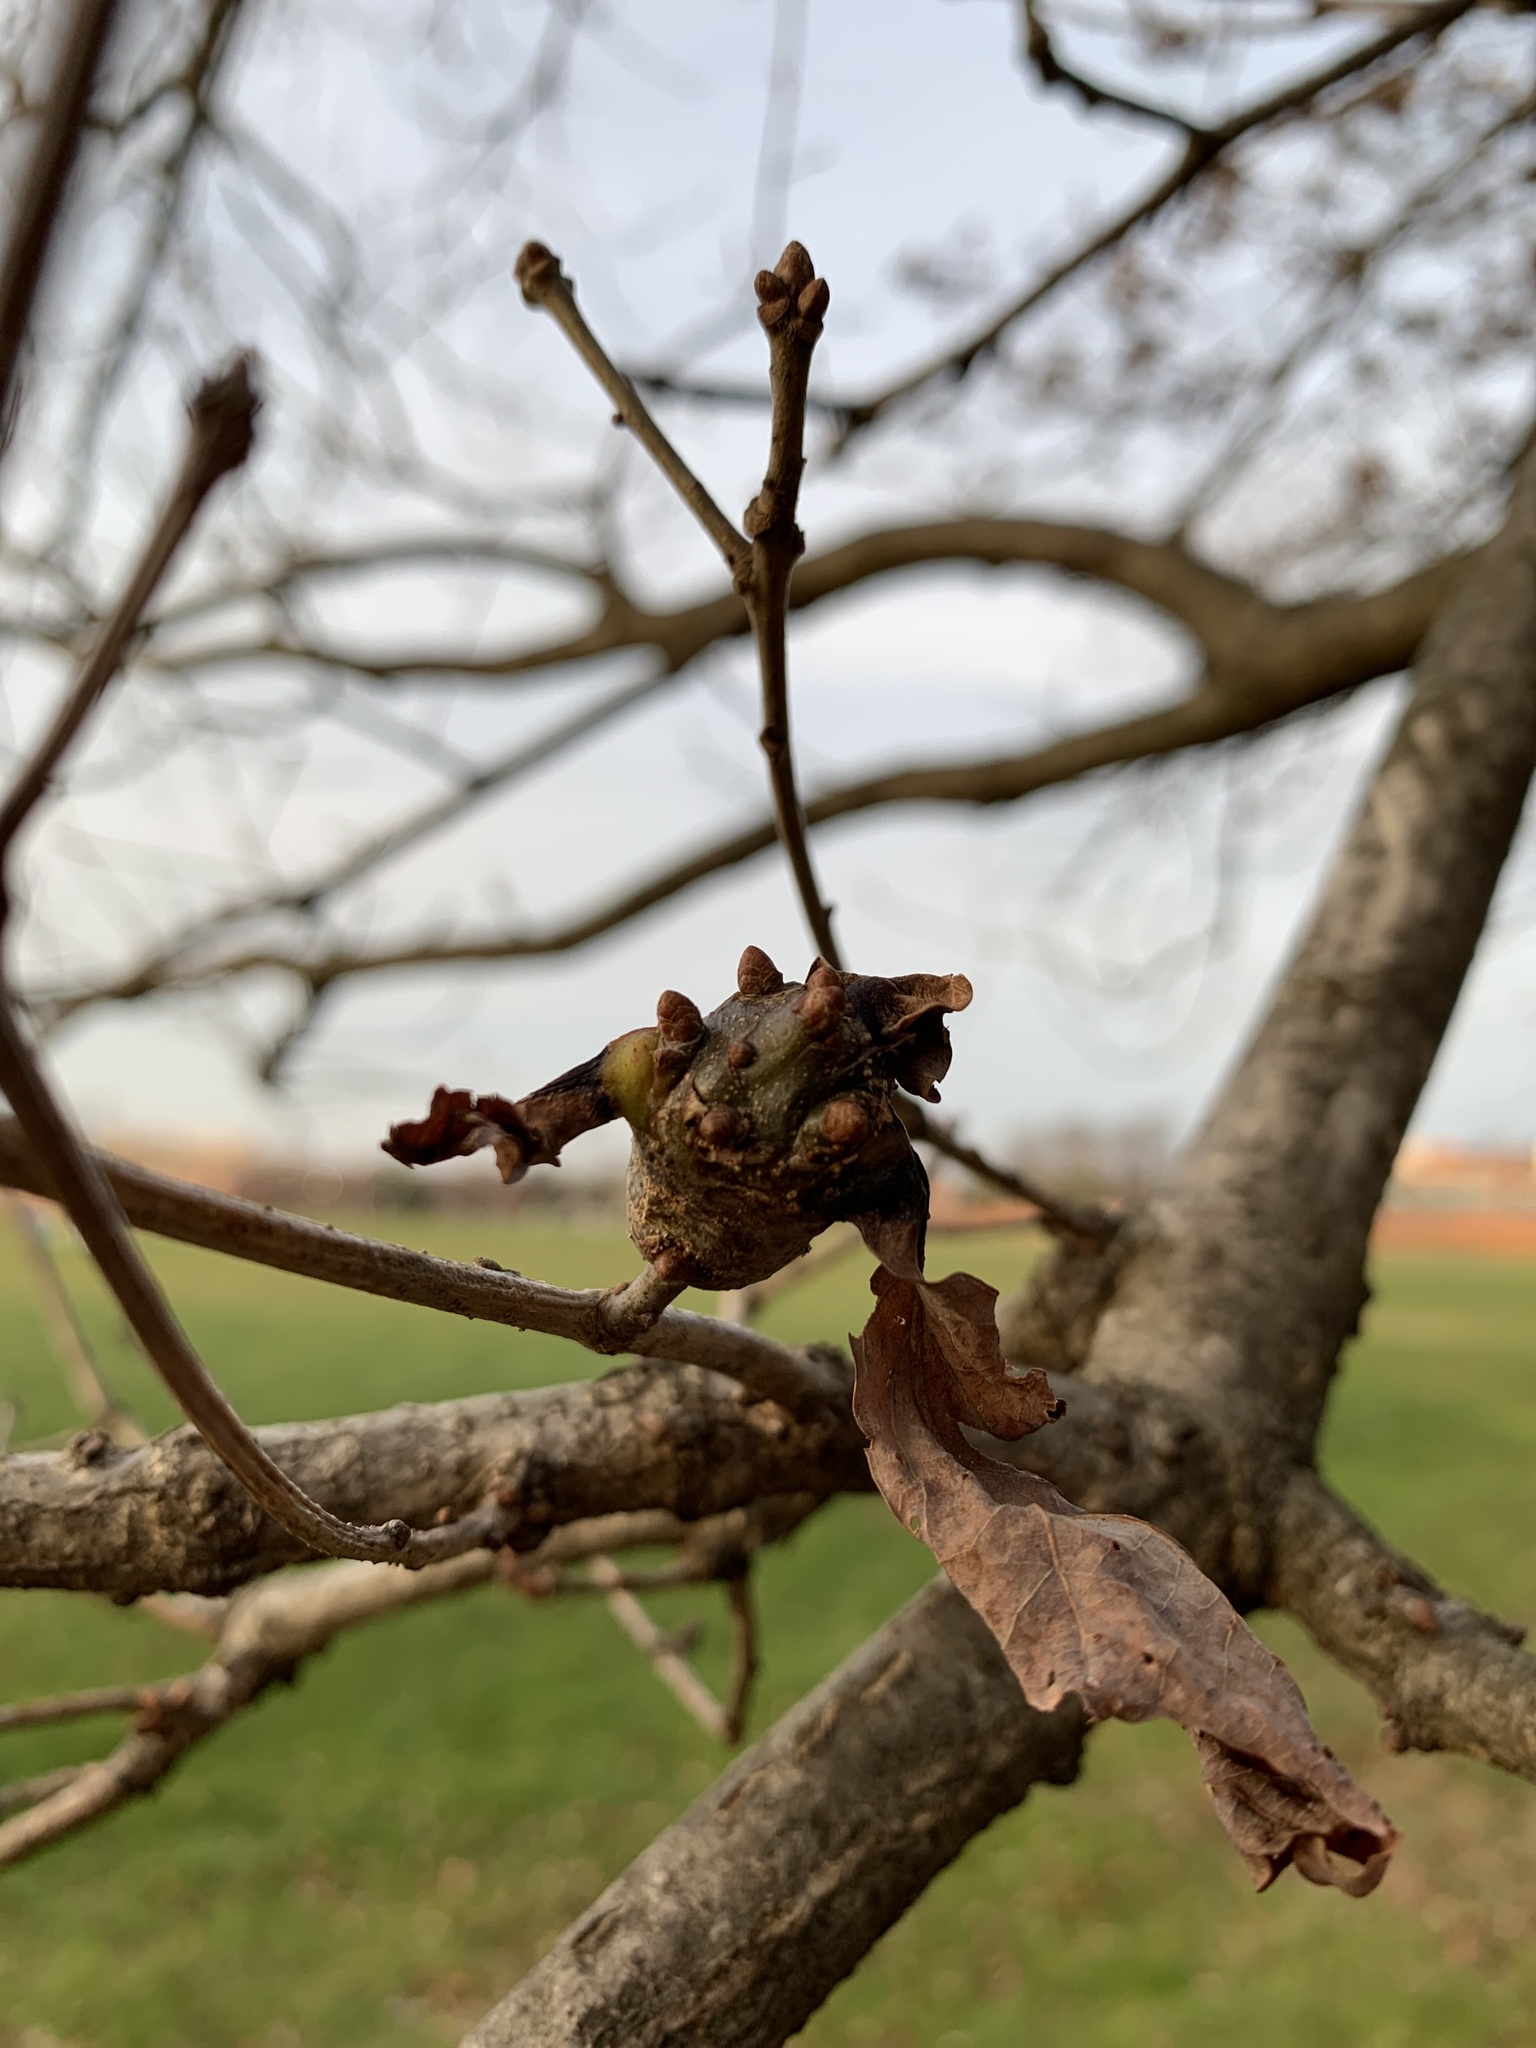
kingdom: Animalia
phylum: Arthropoda
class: Insecta
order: Hymenoptera
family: Cynipidae
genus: Callirhytis
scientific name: Callirhytis clavula
